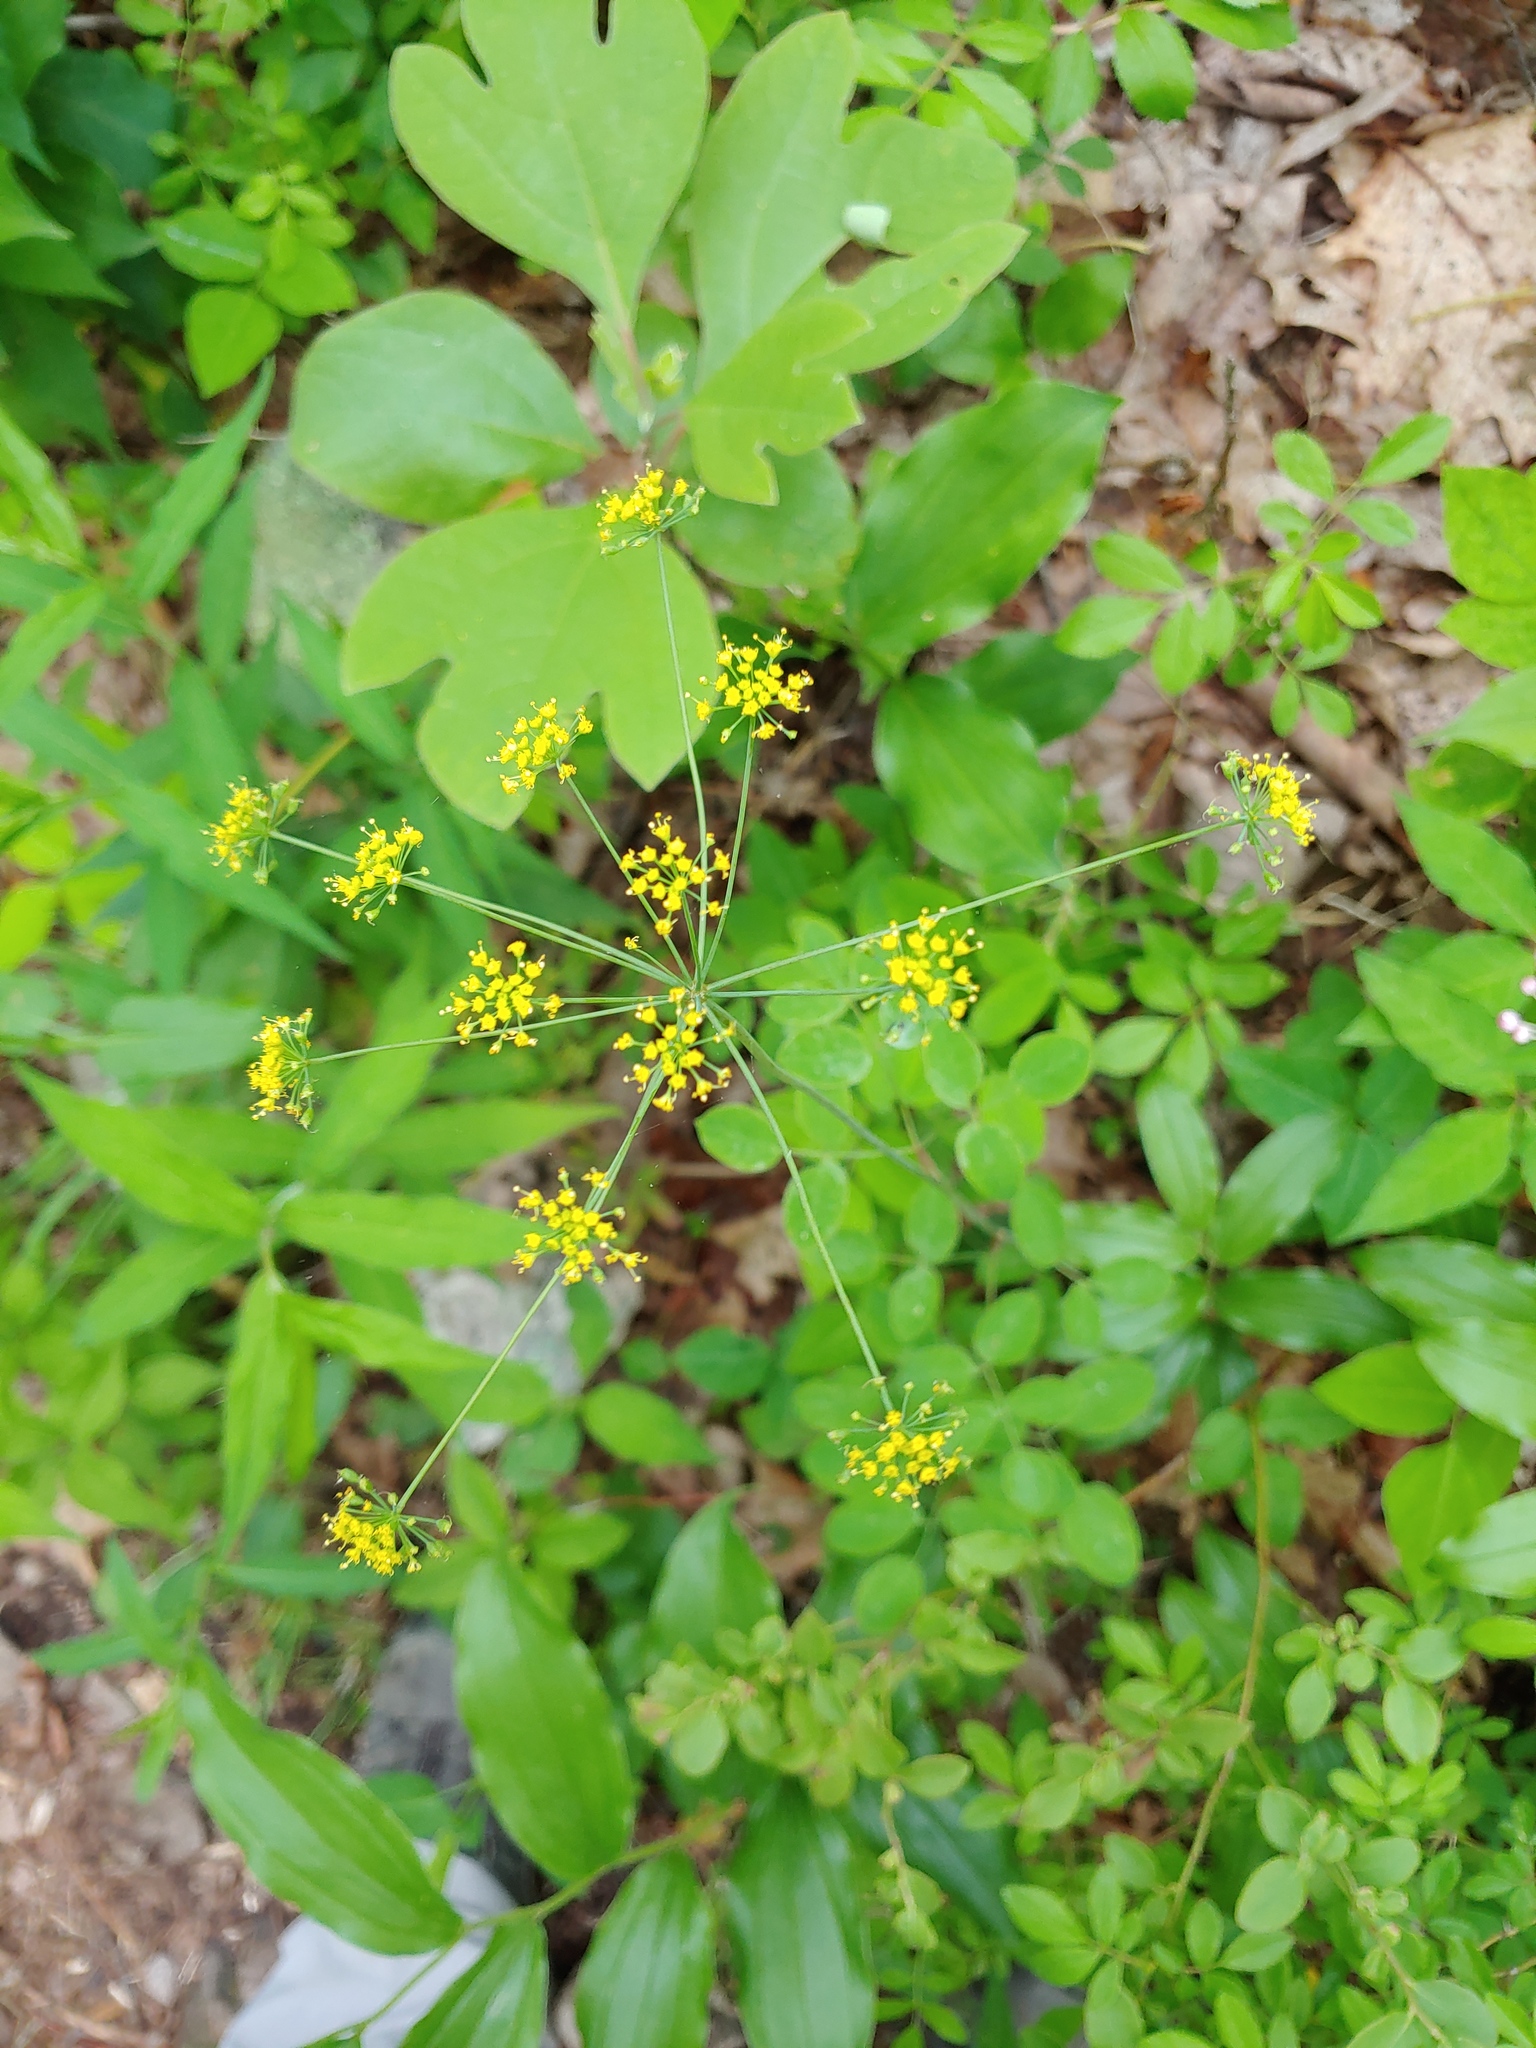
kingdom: Plantae
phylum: Tracheophyta
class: Magnoliopsida
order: Apiales
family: Apiaceae
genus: Taenidia
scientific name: Taenidia integerrima
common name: Golden alexander
